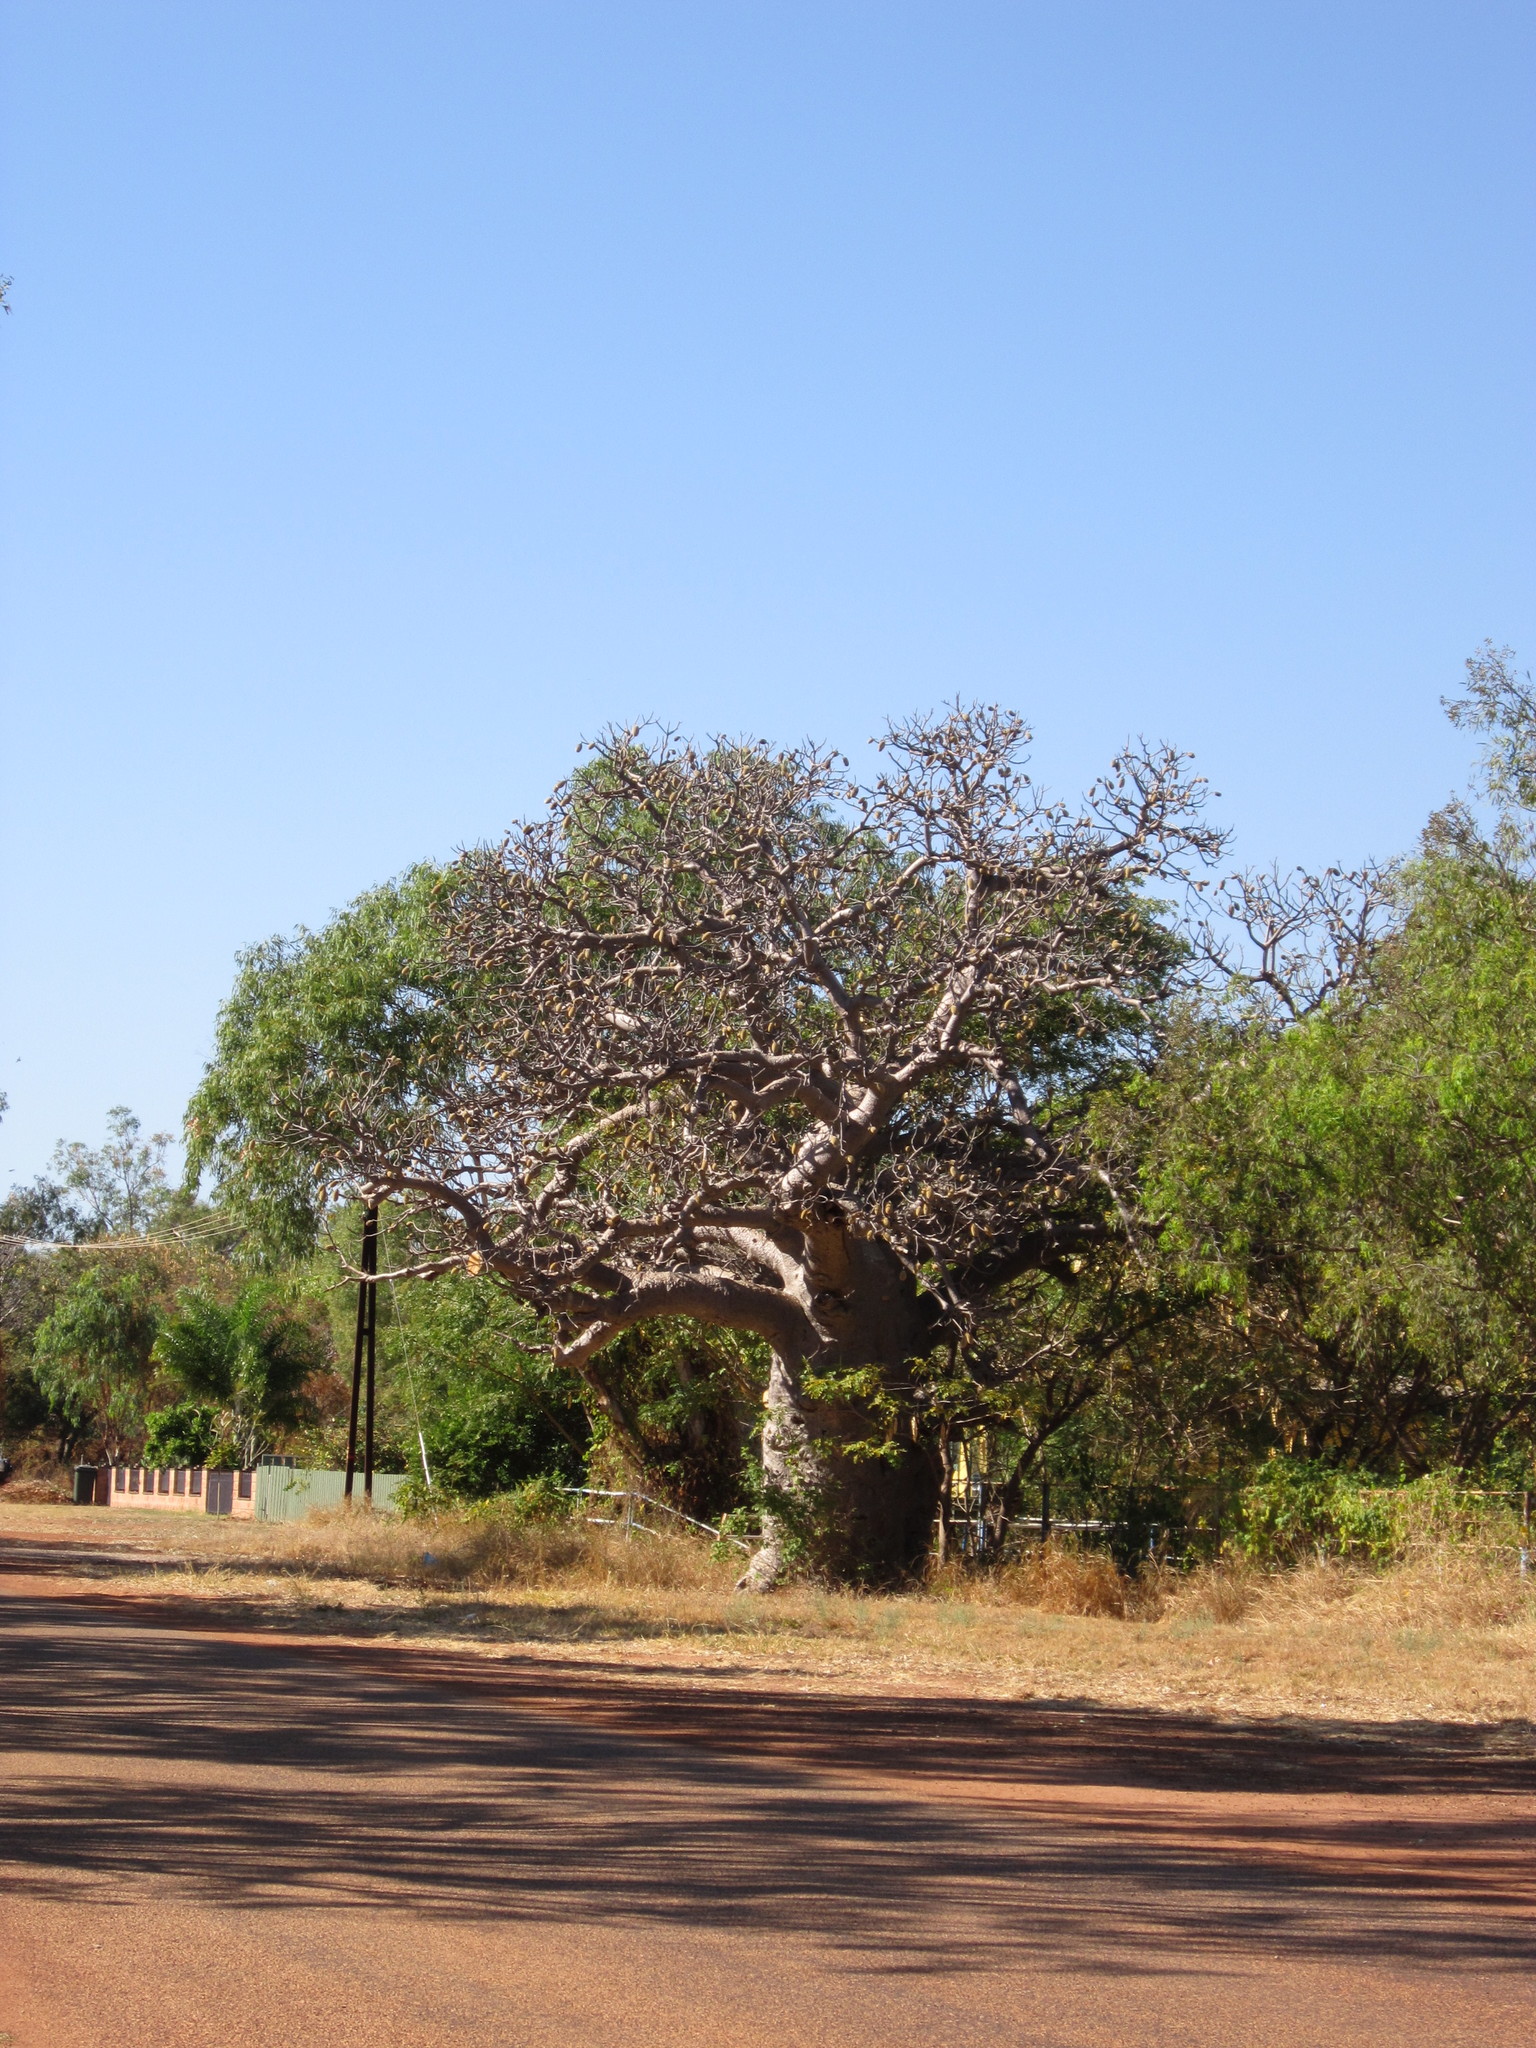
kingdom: Plantae
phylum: Tracheophyta
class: Magnoliopsida
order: Malvales
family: Malvaceae
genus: Adansonia
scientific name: Adansonia gregorii
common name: Australian baobab
